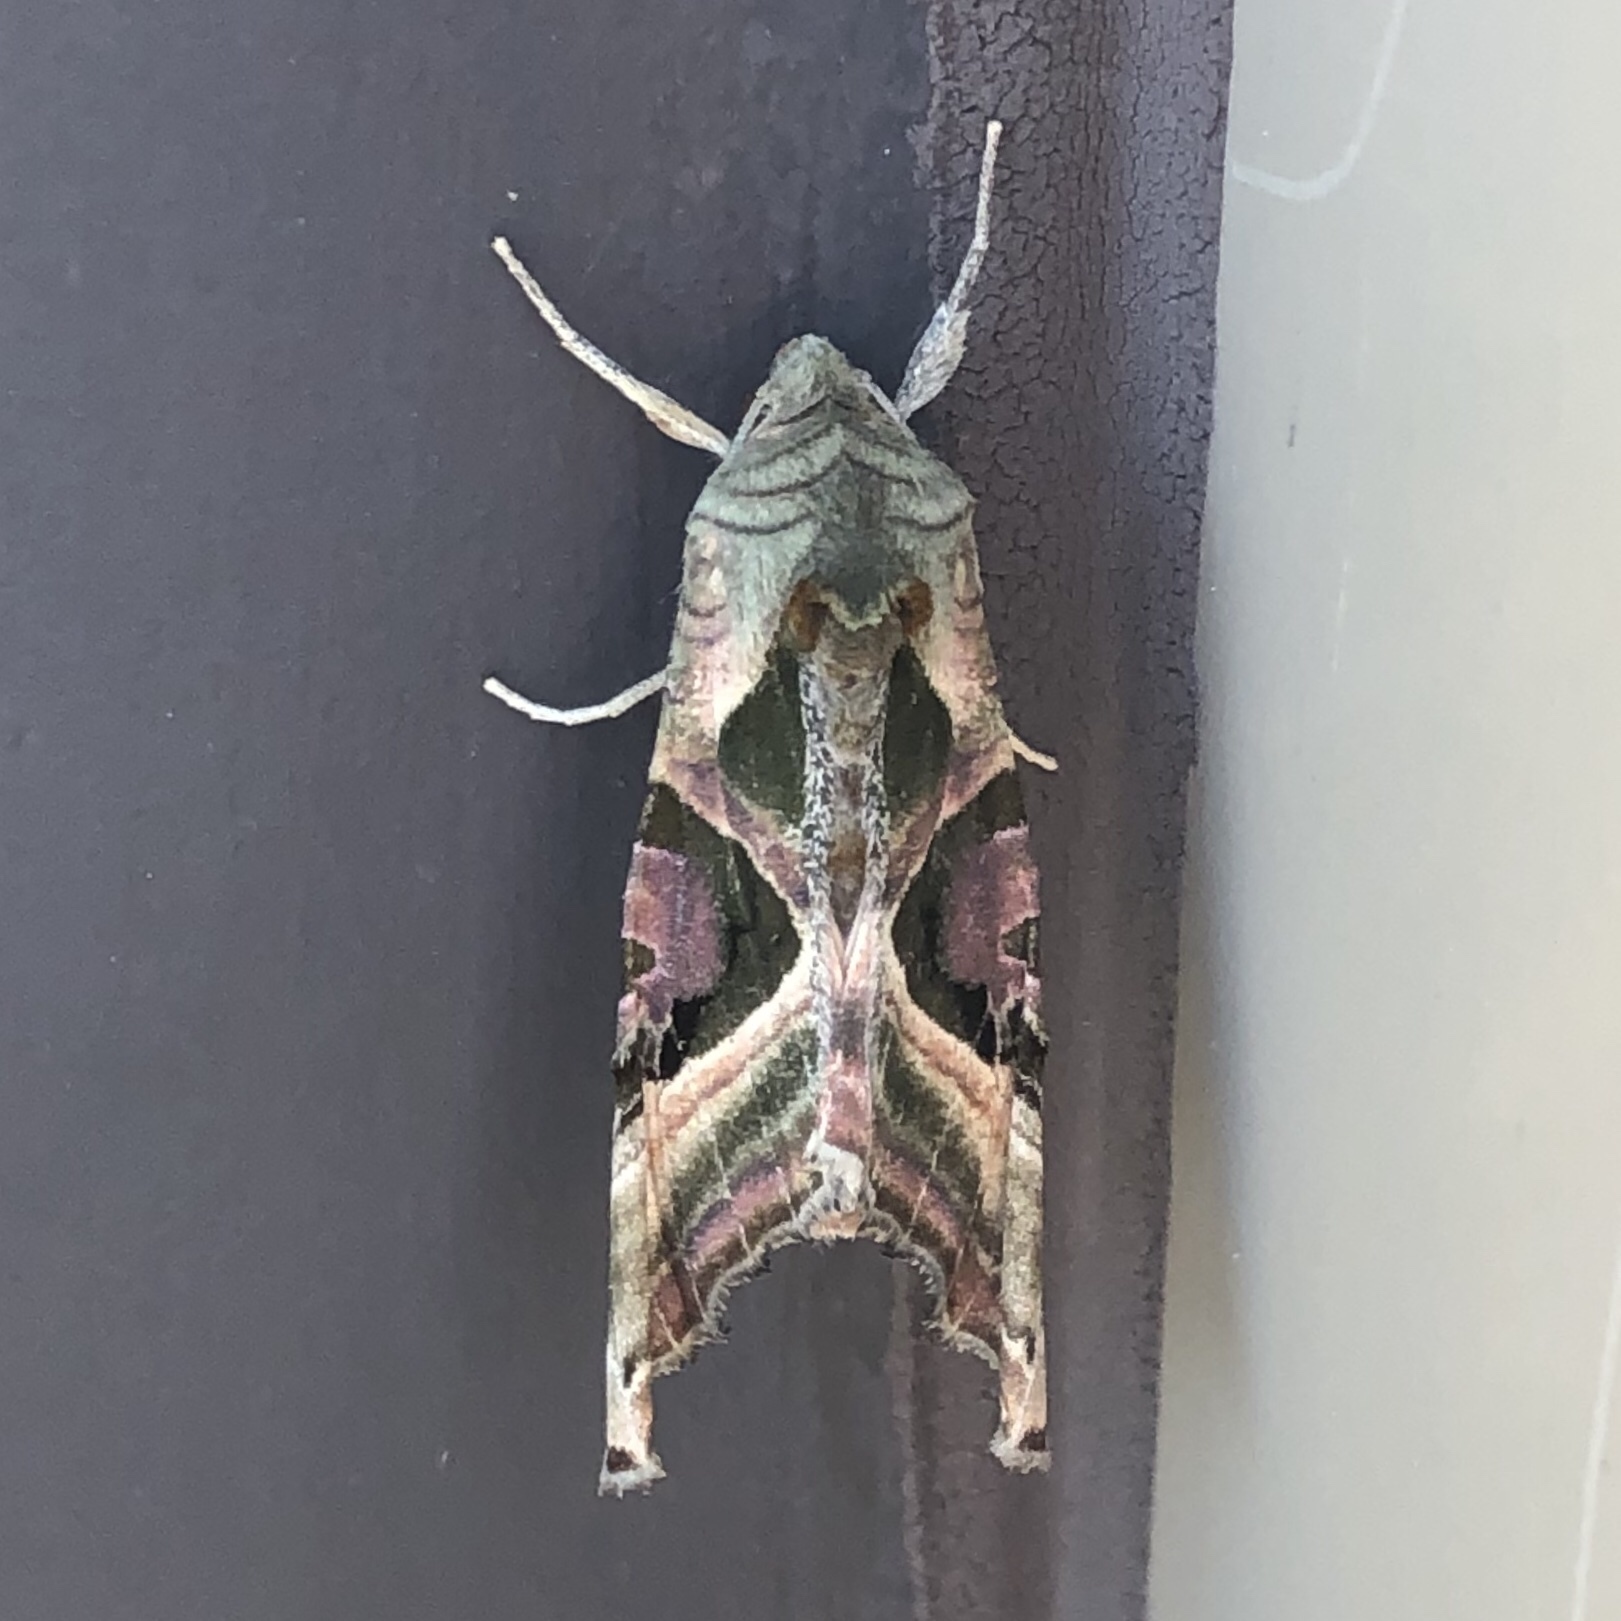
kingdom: Animalia
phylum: Arthropoda
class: Insecta
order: Lepidoptera
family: Noctuidae
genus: Phlogophora
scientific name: Phlogophora iris
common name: Olive angle shades
